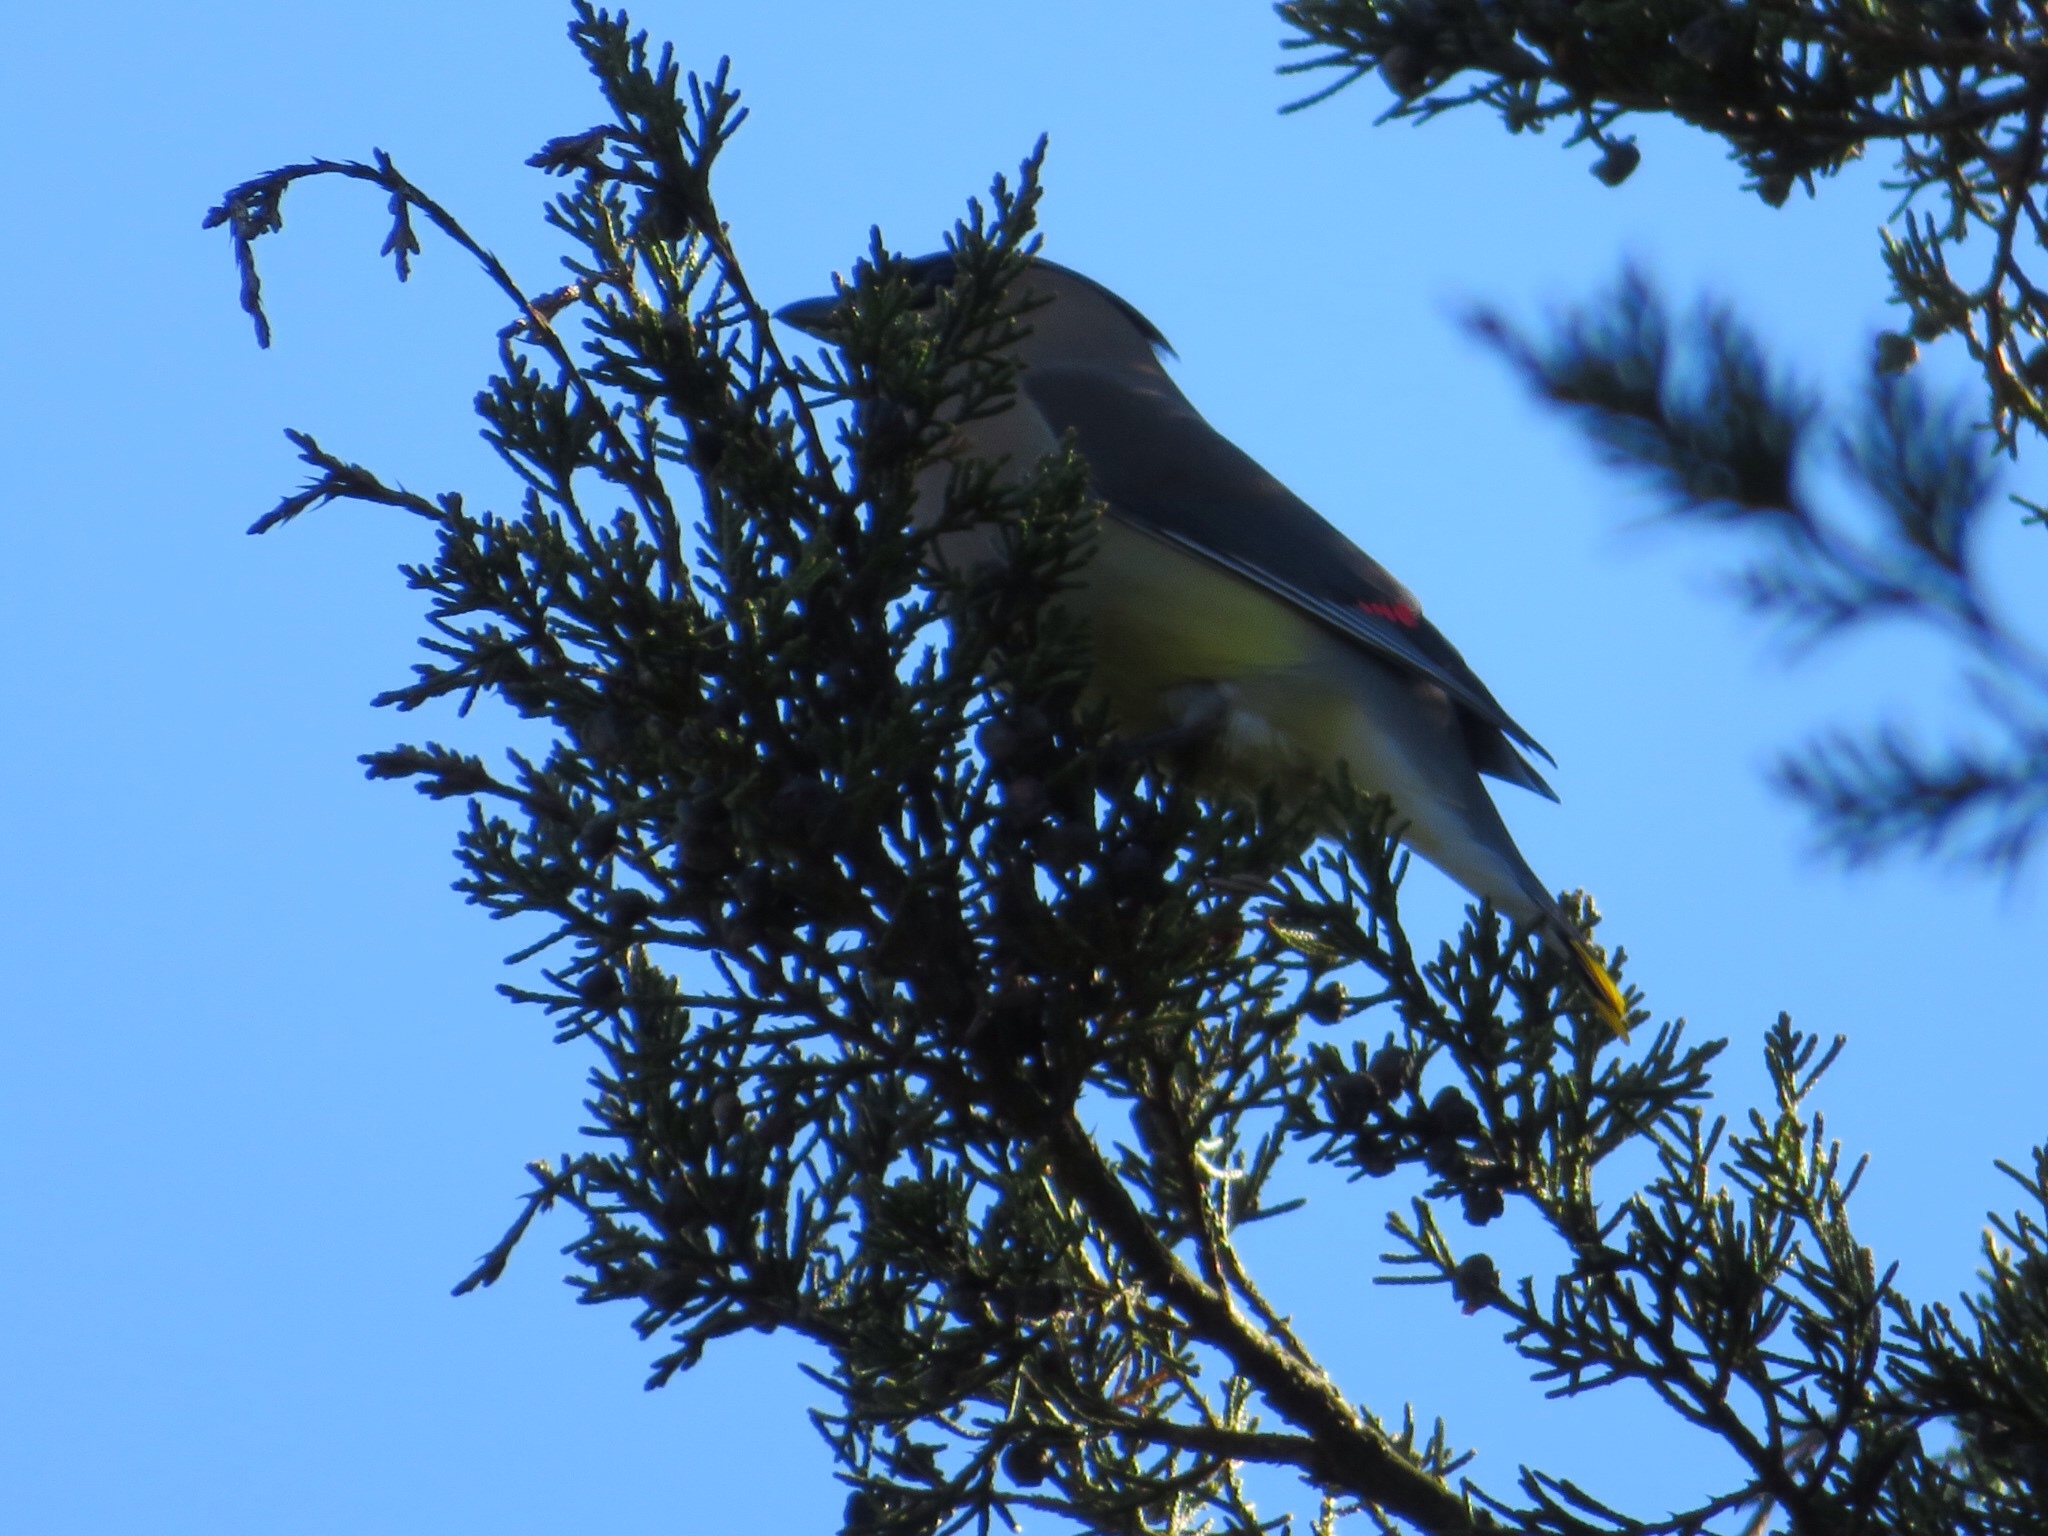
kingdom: Animalia
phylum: Chordata
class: Aves
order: Passeriformes
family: Bombycillidae
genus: Bombycilla
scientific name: Bombycilla cedrorum
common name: Cedar waxwing
